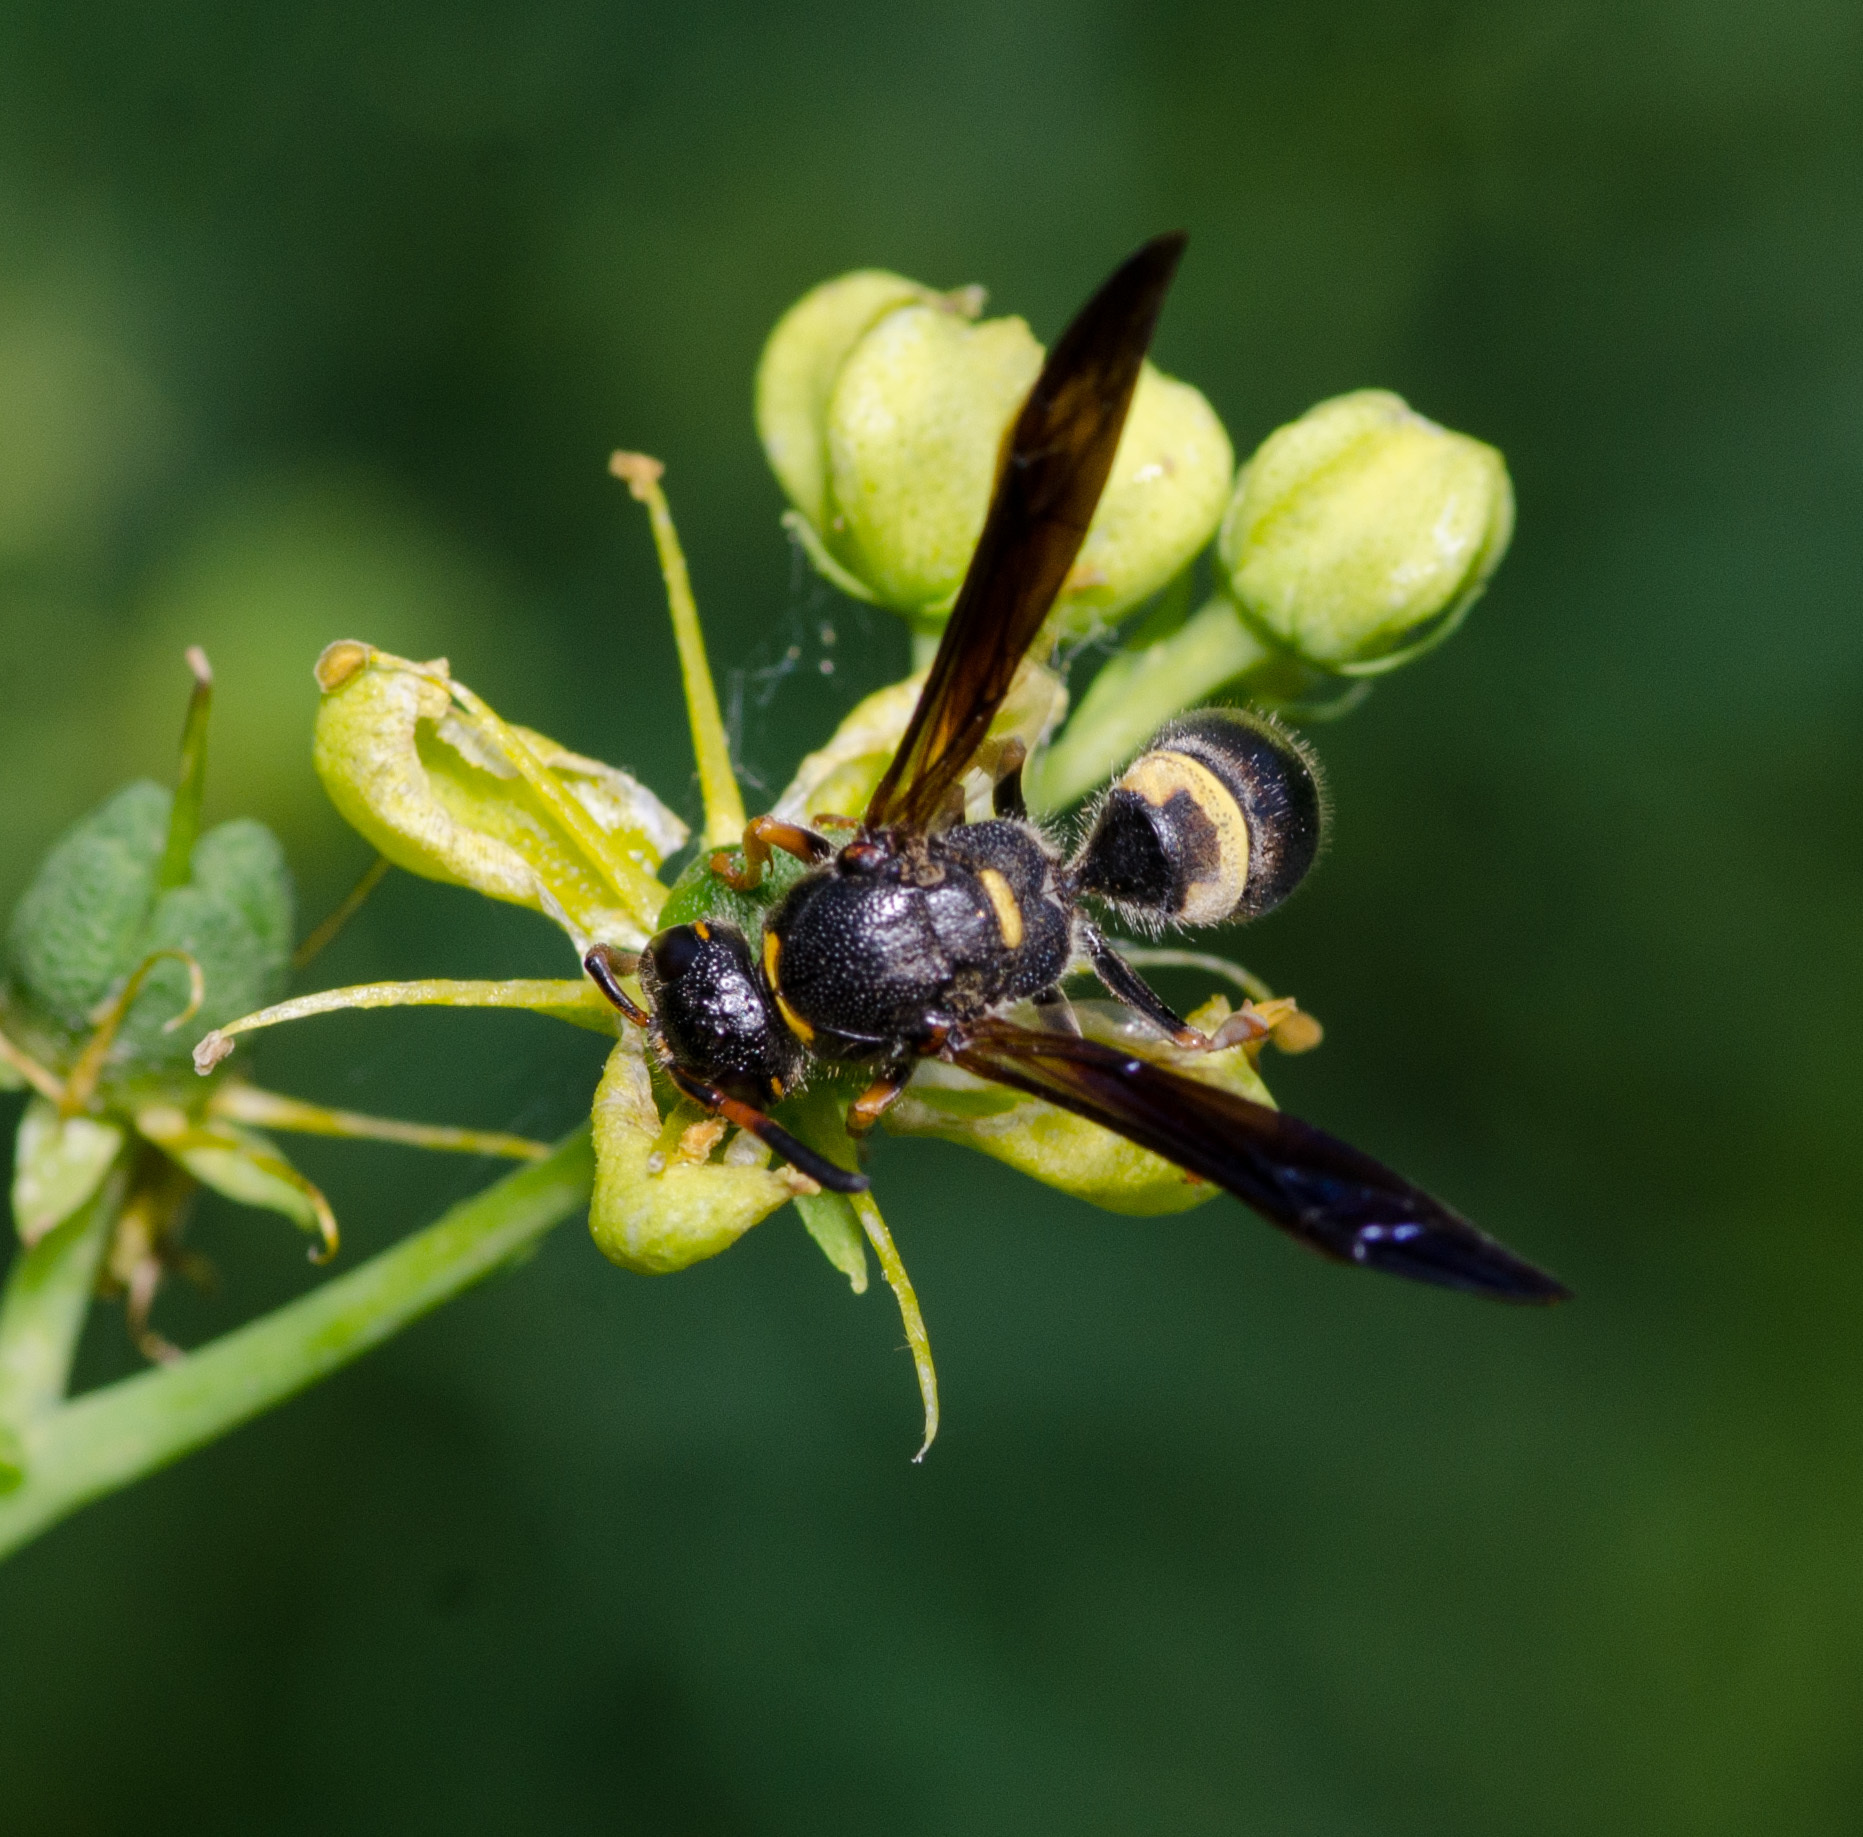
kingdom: Animalia
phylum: Arthropoda
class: Insecta
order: Hymenoptera
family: Vespidae
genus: Ancistrocerus
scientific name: Ancistrocerus unifasciatus
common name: One-banded mason wasp
